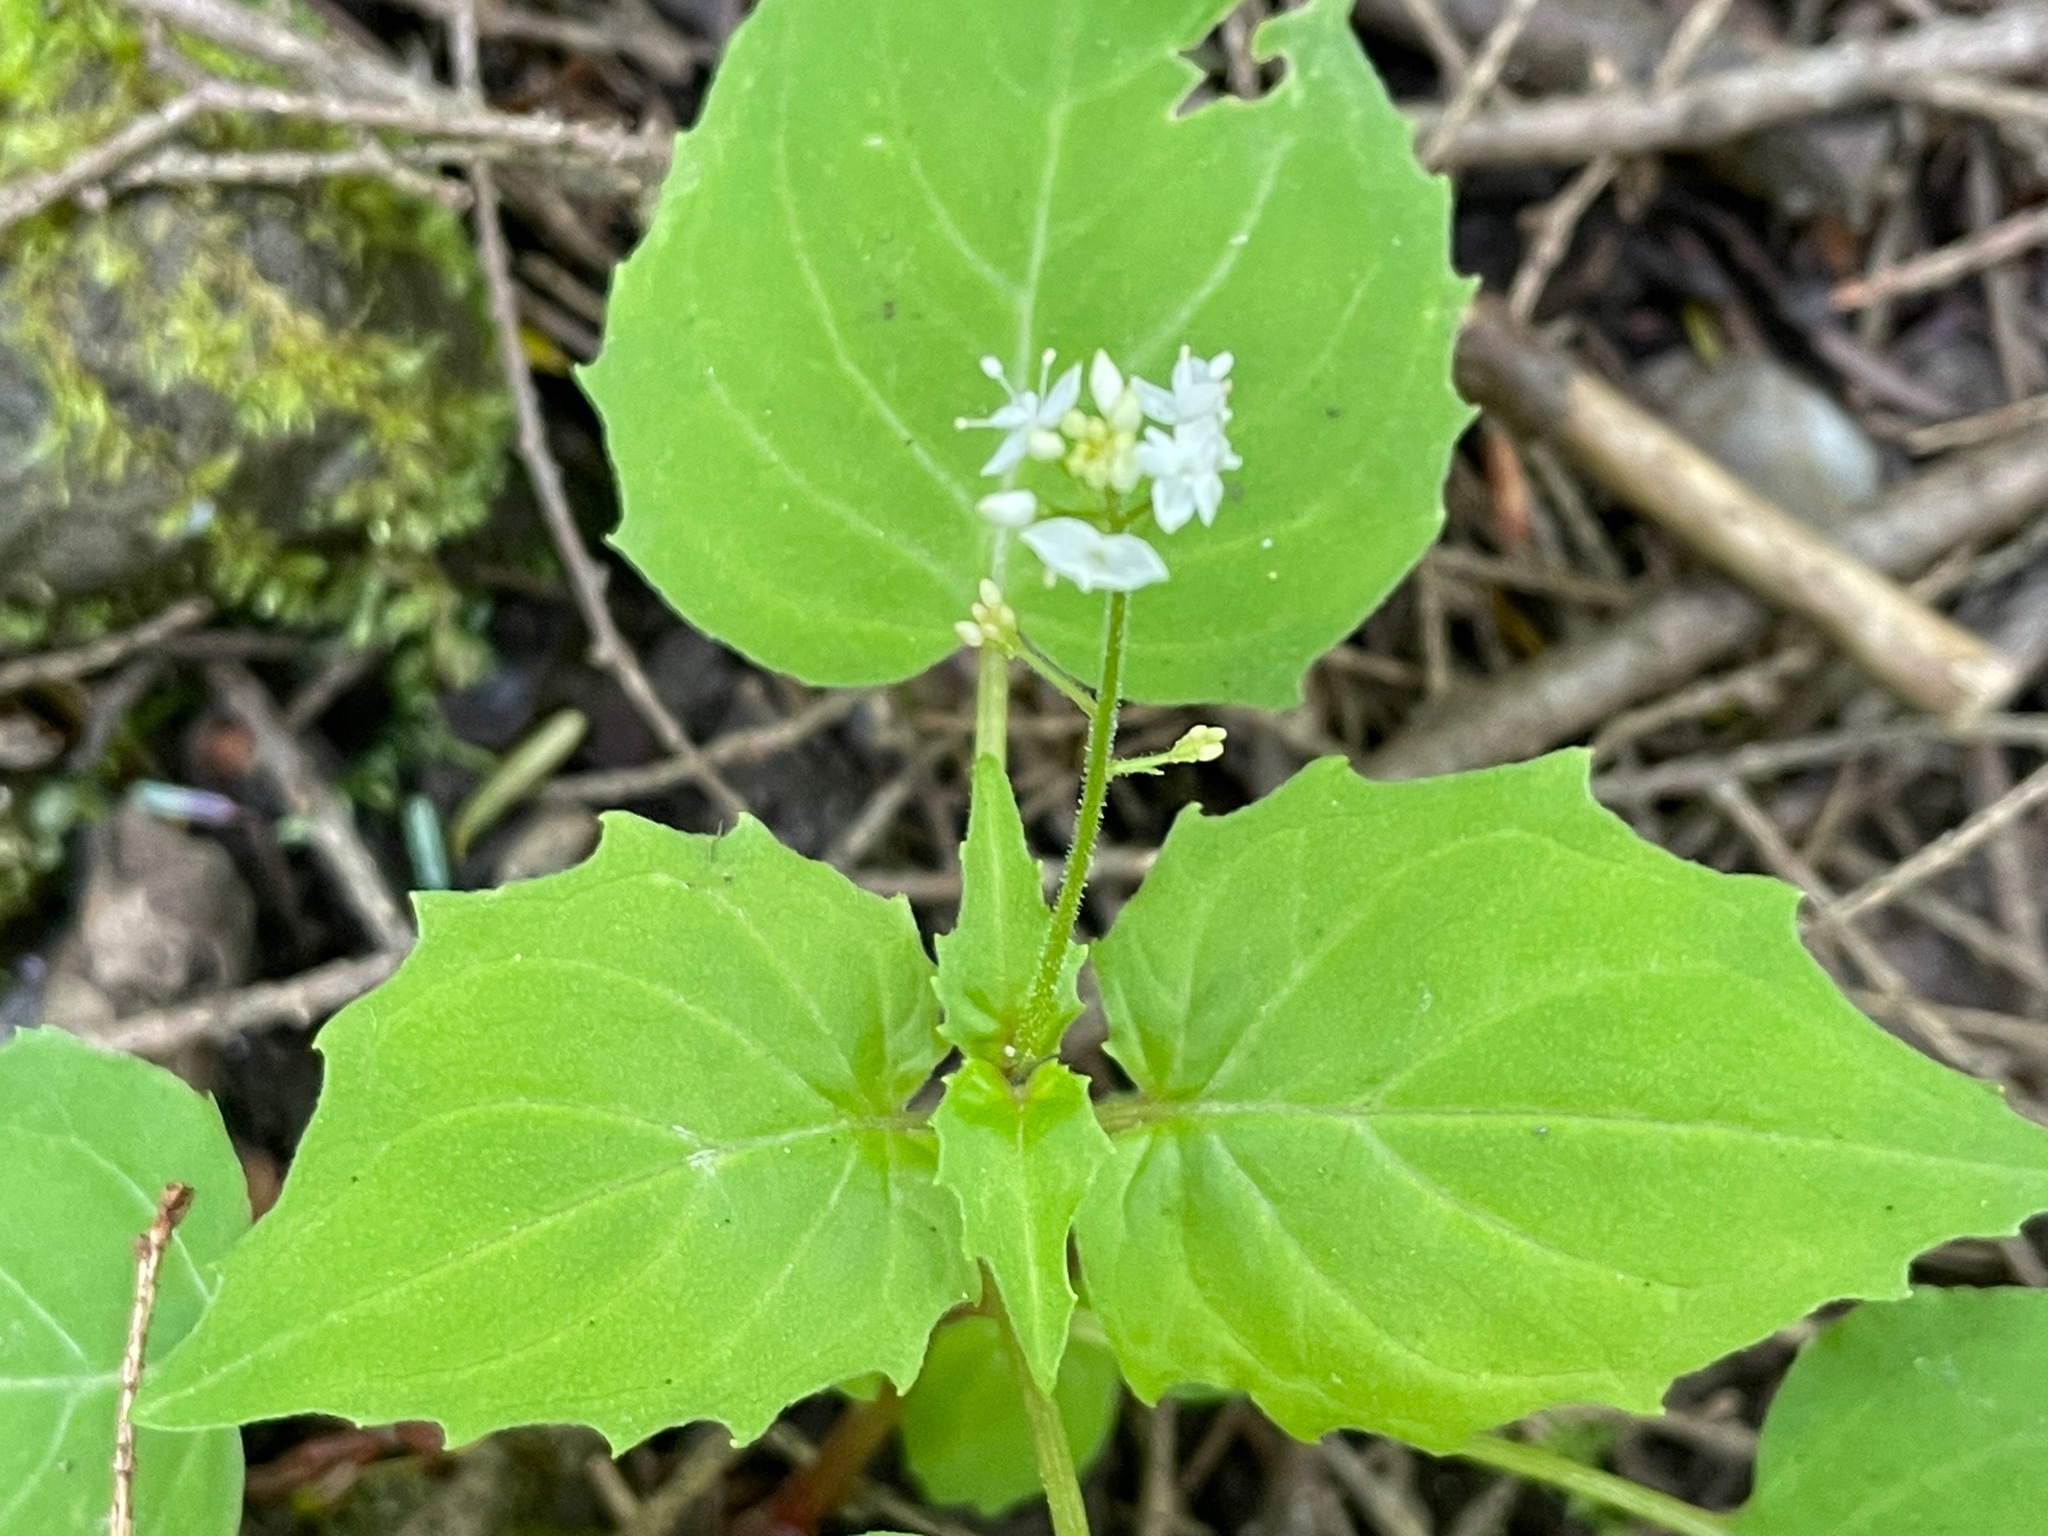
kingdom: Plantae
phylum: Tracheophyta
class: Magnoliopsida
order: Myrtales
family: Onagraceae
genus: Circaea
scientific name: Circaea alpina
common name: Alpine enchanter's-nightshade
